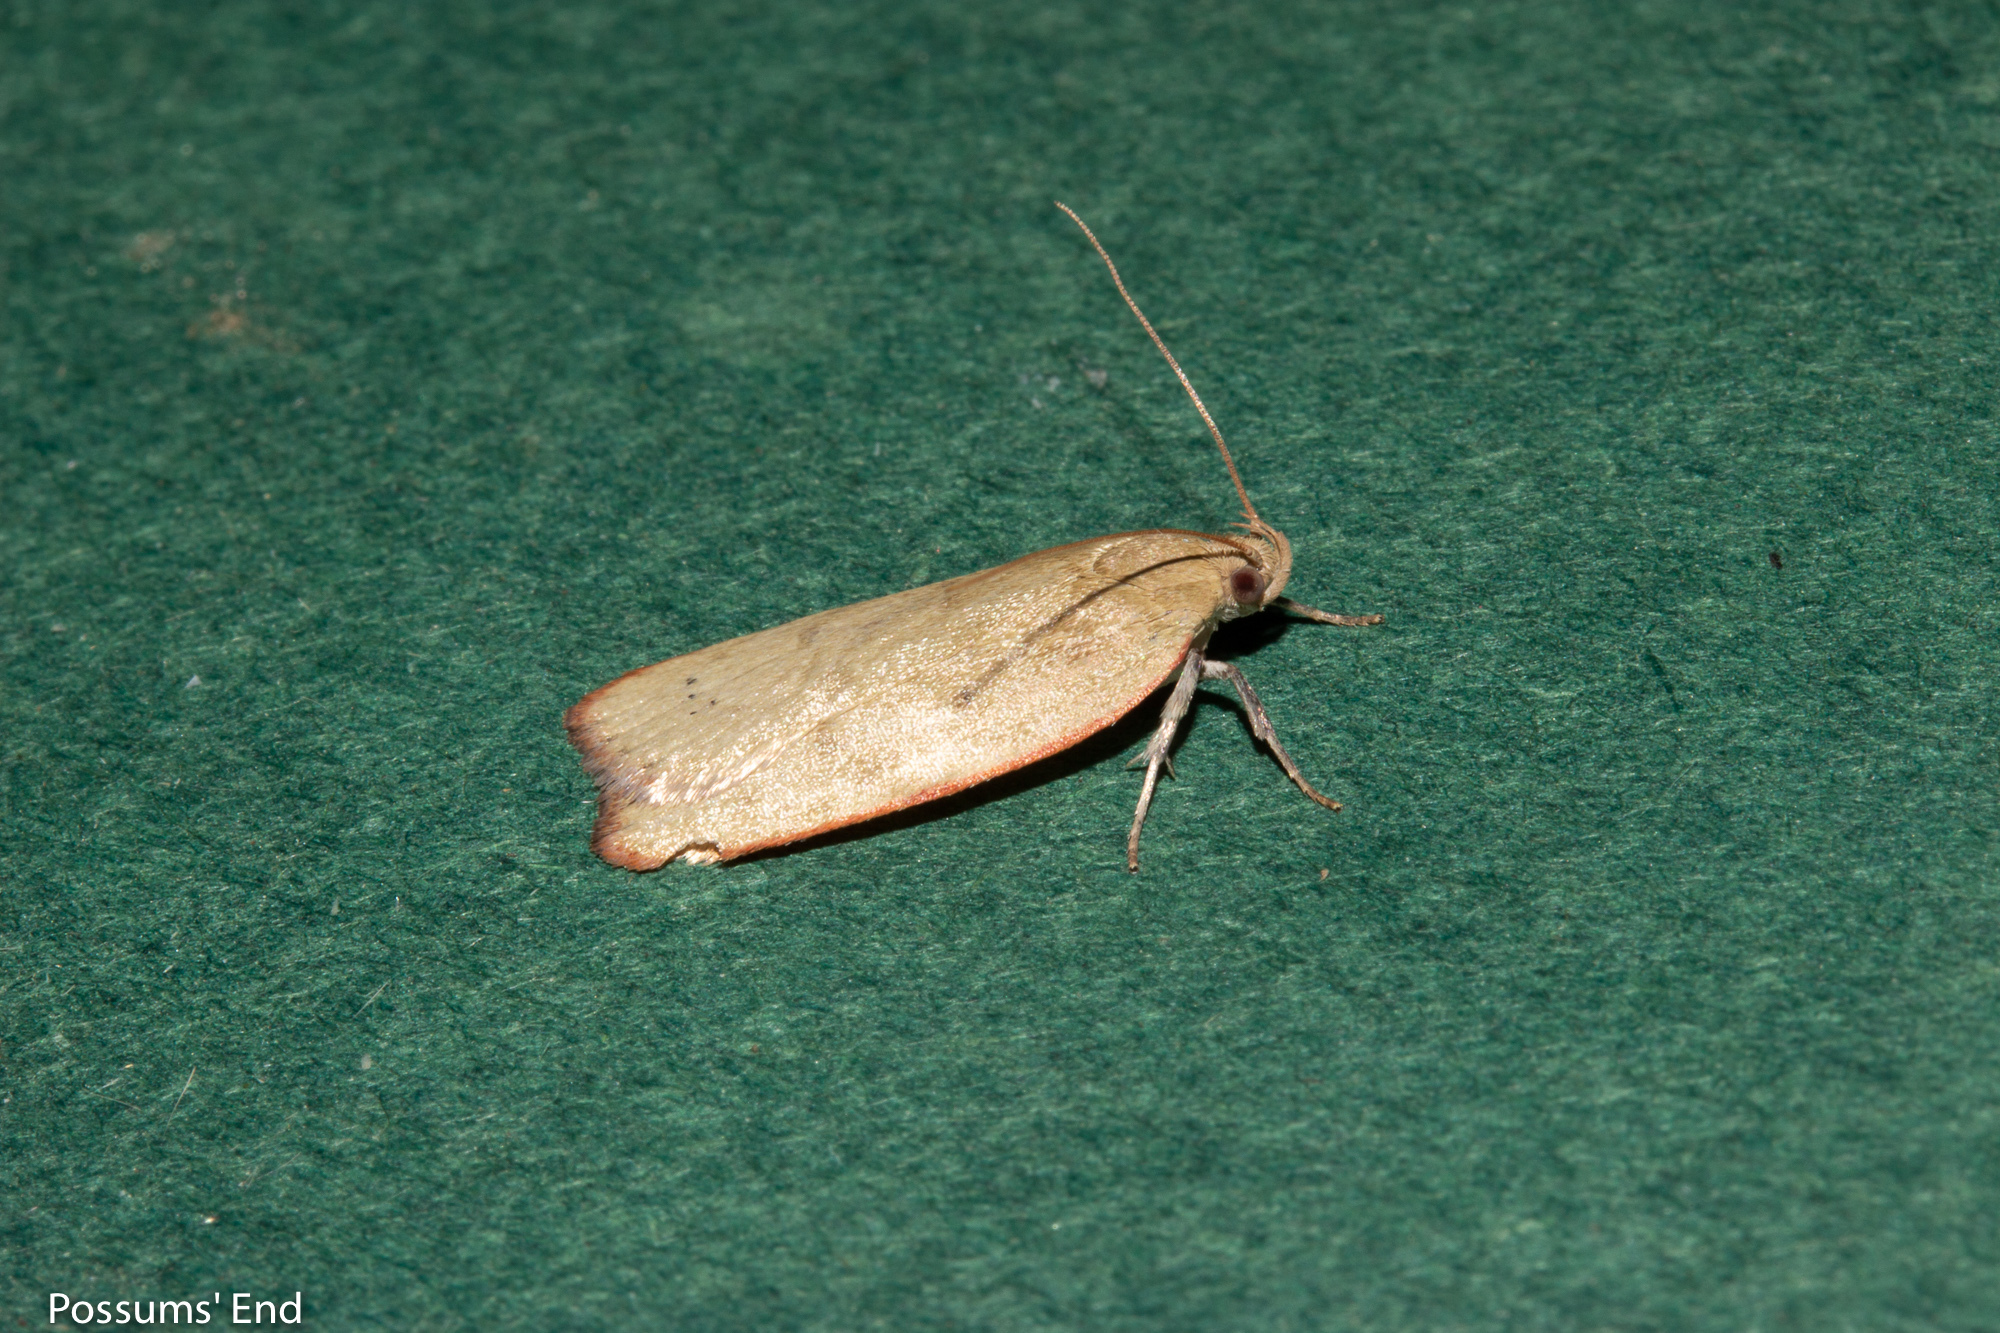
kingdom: Animalia
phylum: Arthropoda
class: Insecta
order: Lepidoptera
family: Depressariidae
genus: Phaeosaces
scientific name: Phaeosaces coarctatella
